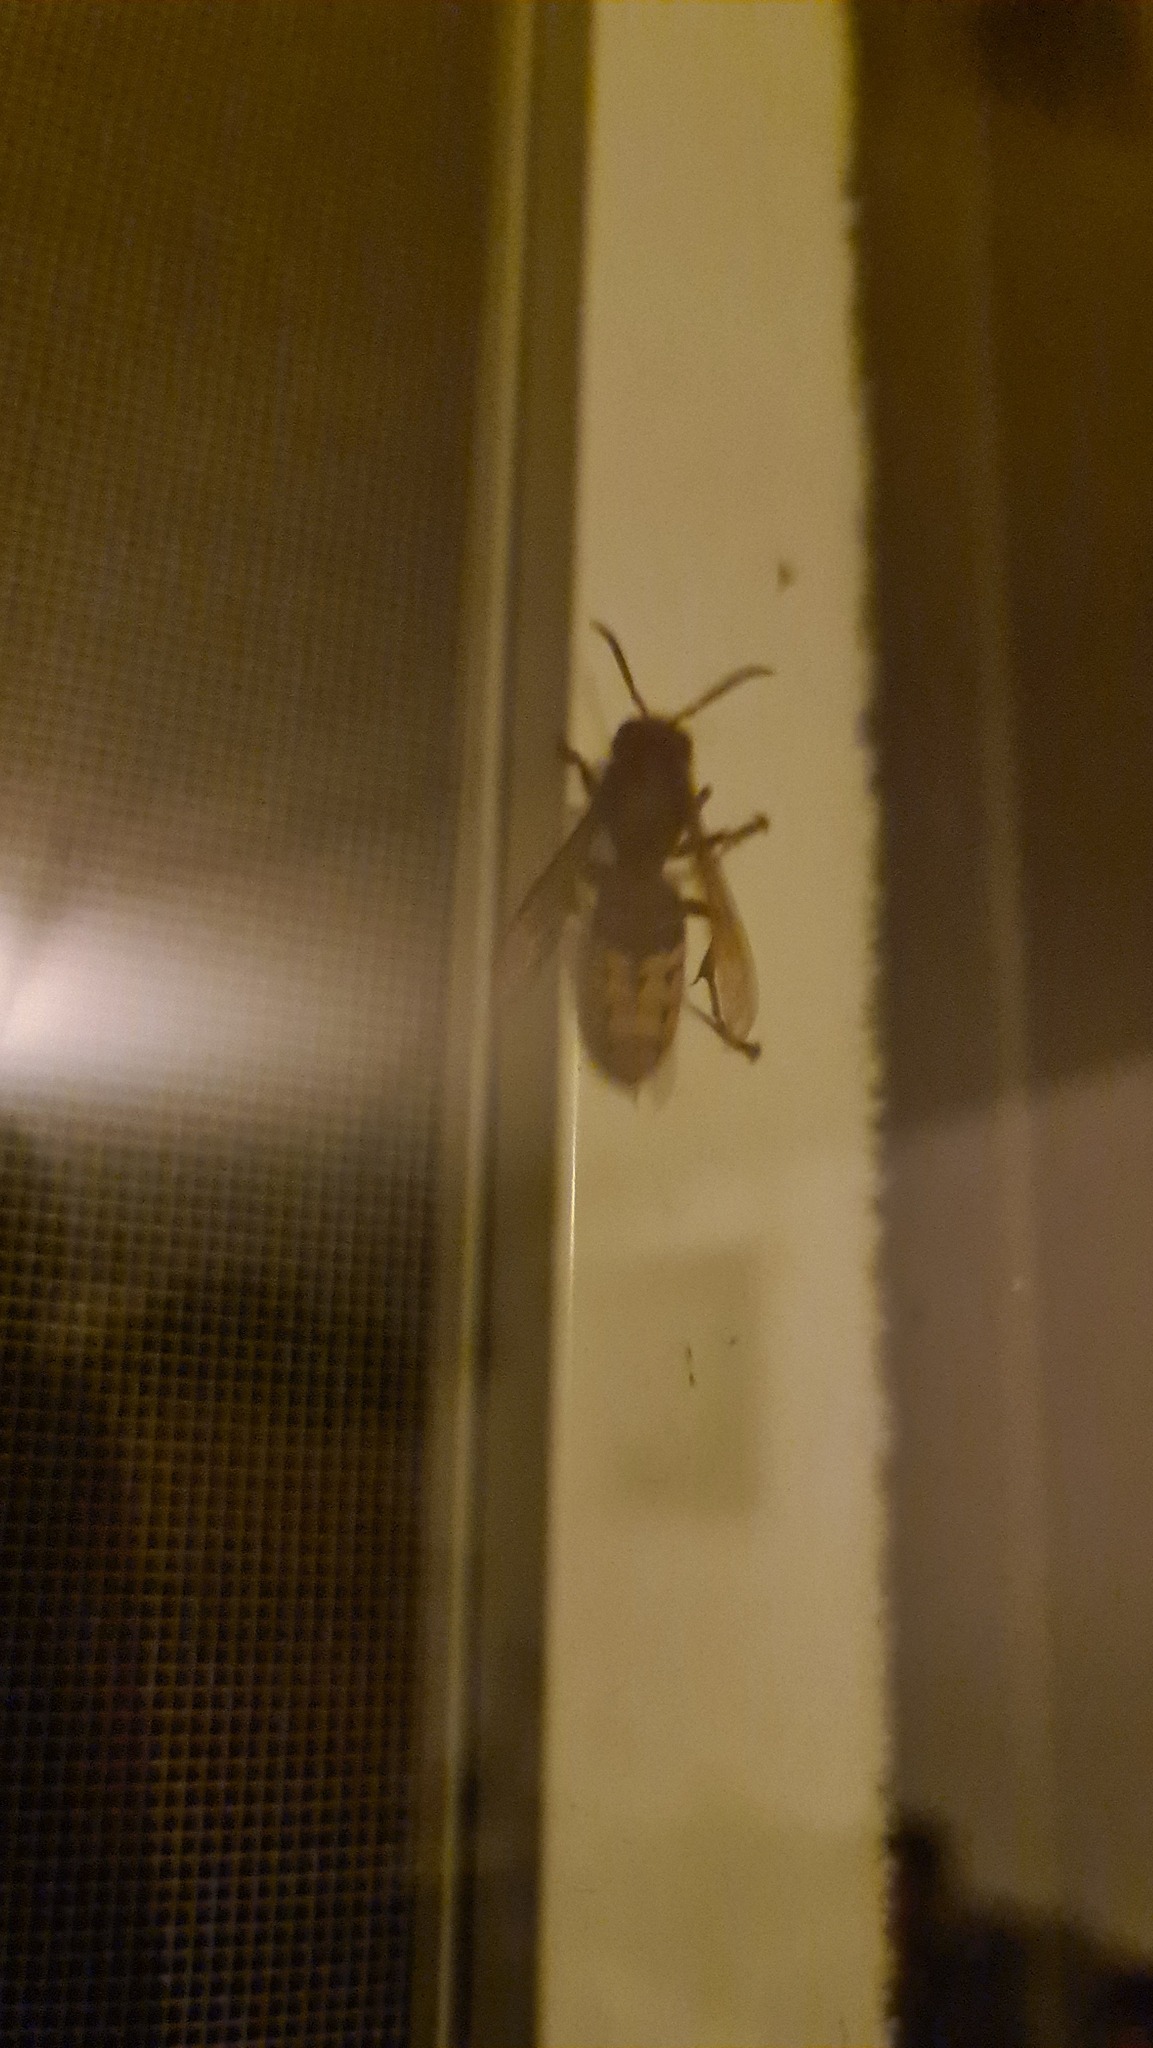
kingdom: Animalia
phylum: Arthropoda
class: Insecta
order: Hymenoptera
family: Vespidae
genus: Vespa
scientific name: Vespa crabro
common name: Hornet
